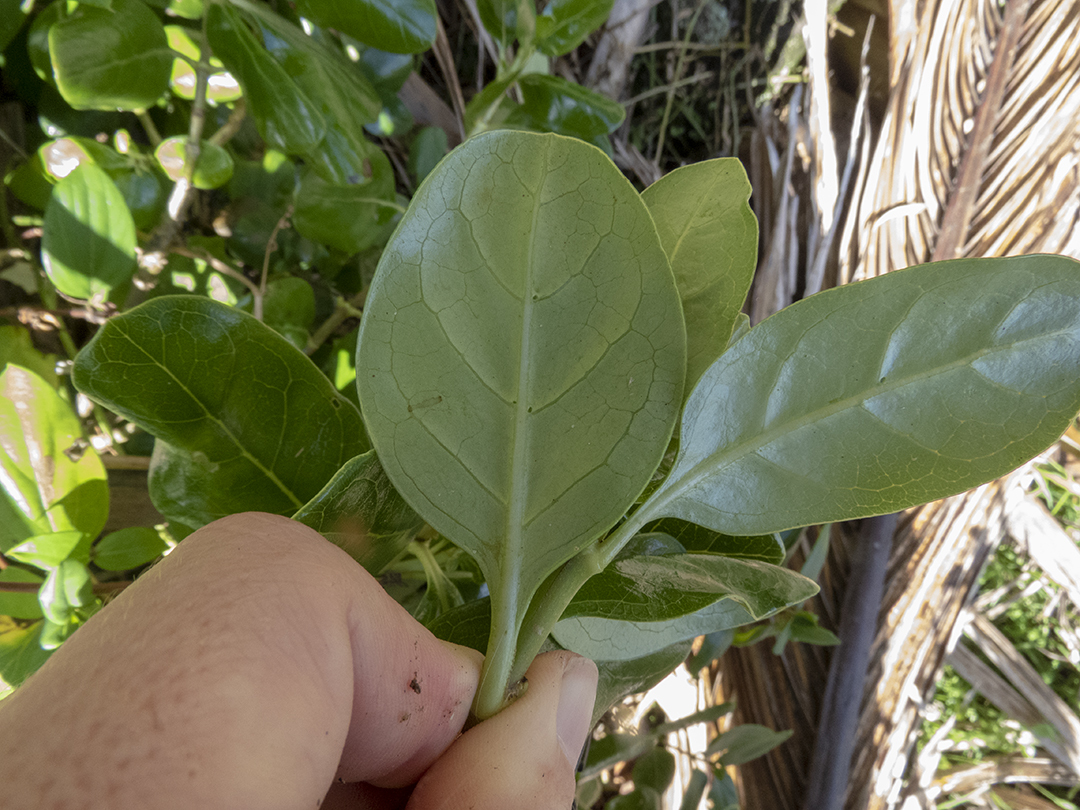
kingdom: Plantae
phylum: Tracheophyta
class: Magnoliopsida
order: Gentianales
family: Rubiaceae
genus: Coprosma
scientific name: Coprosma repens
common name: Tree bedstraw
